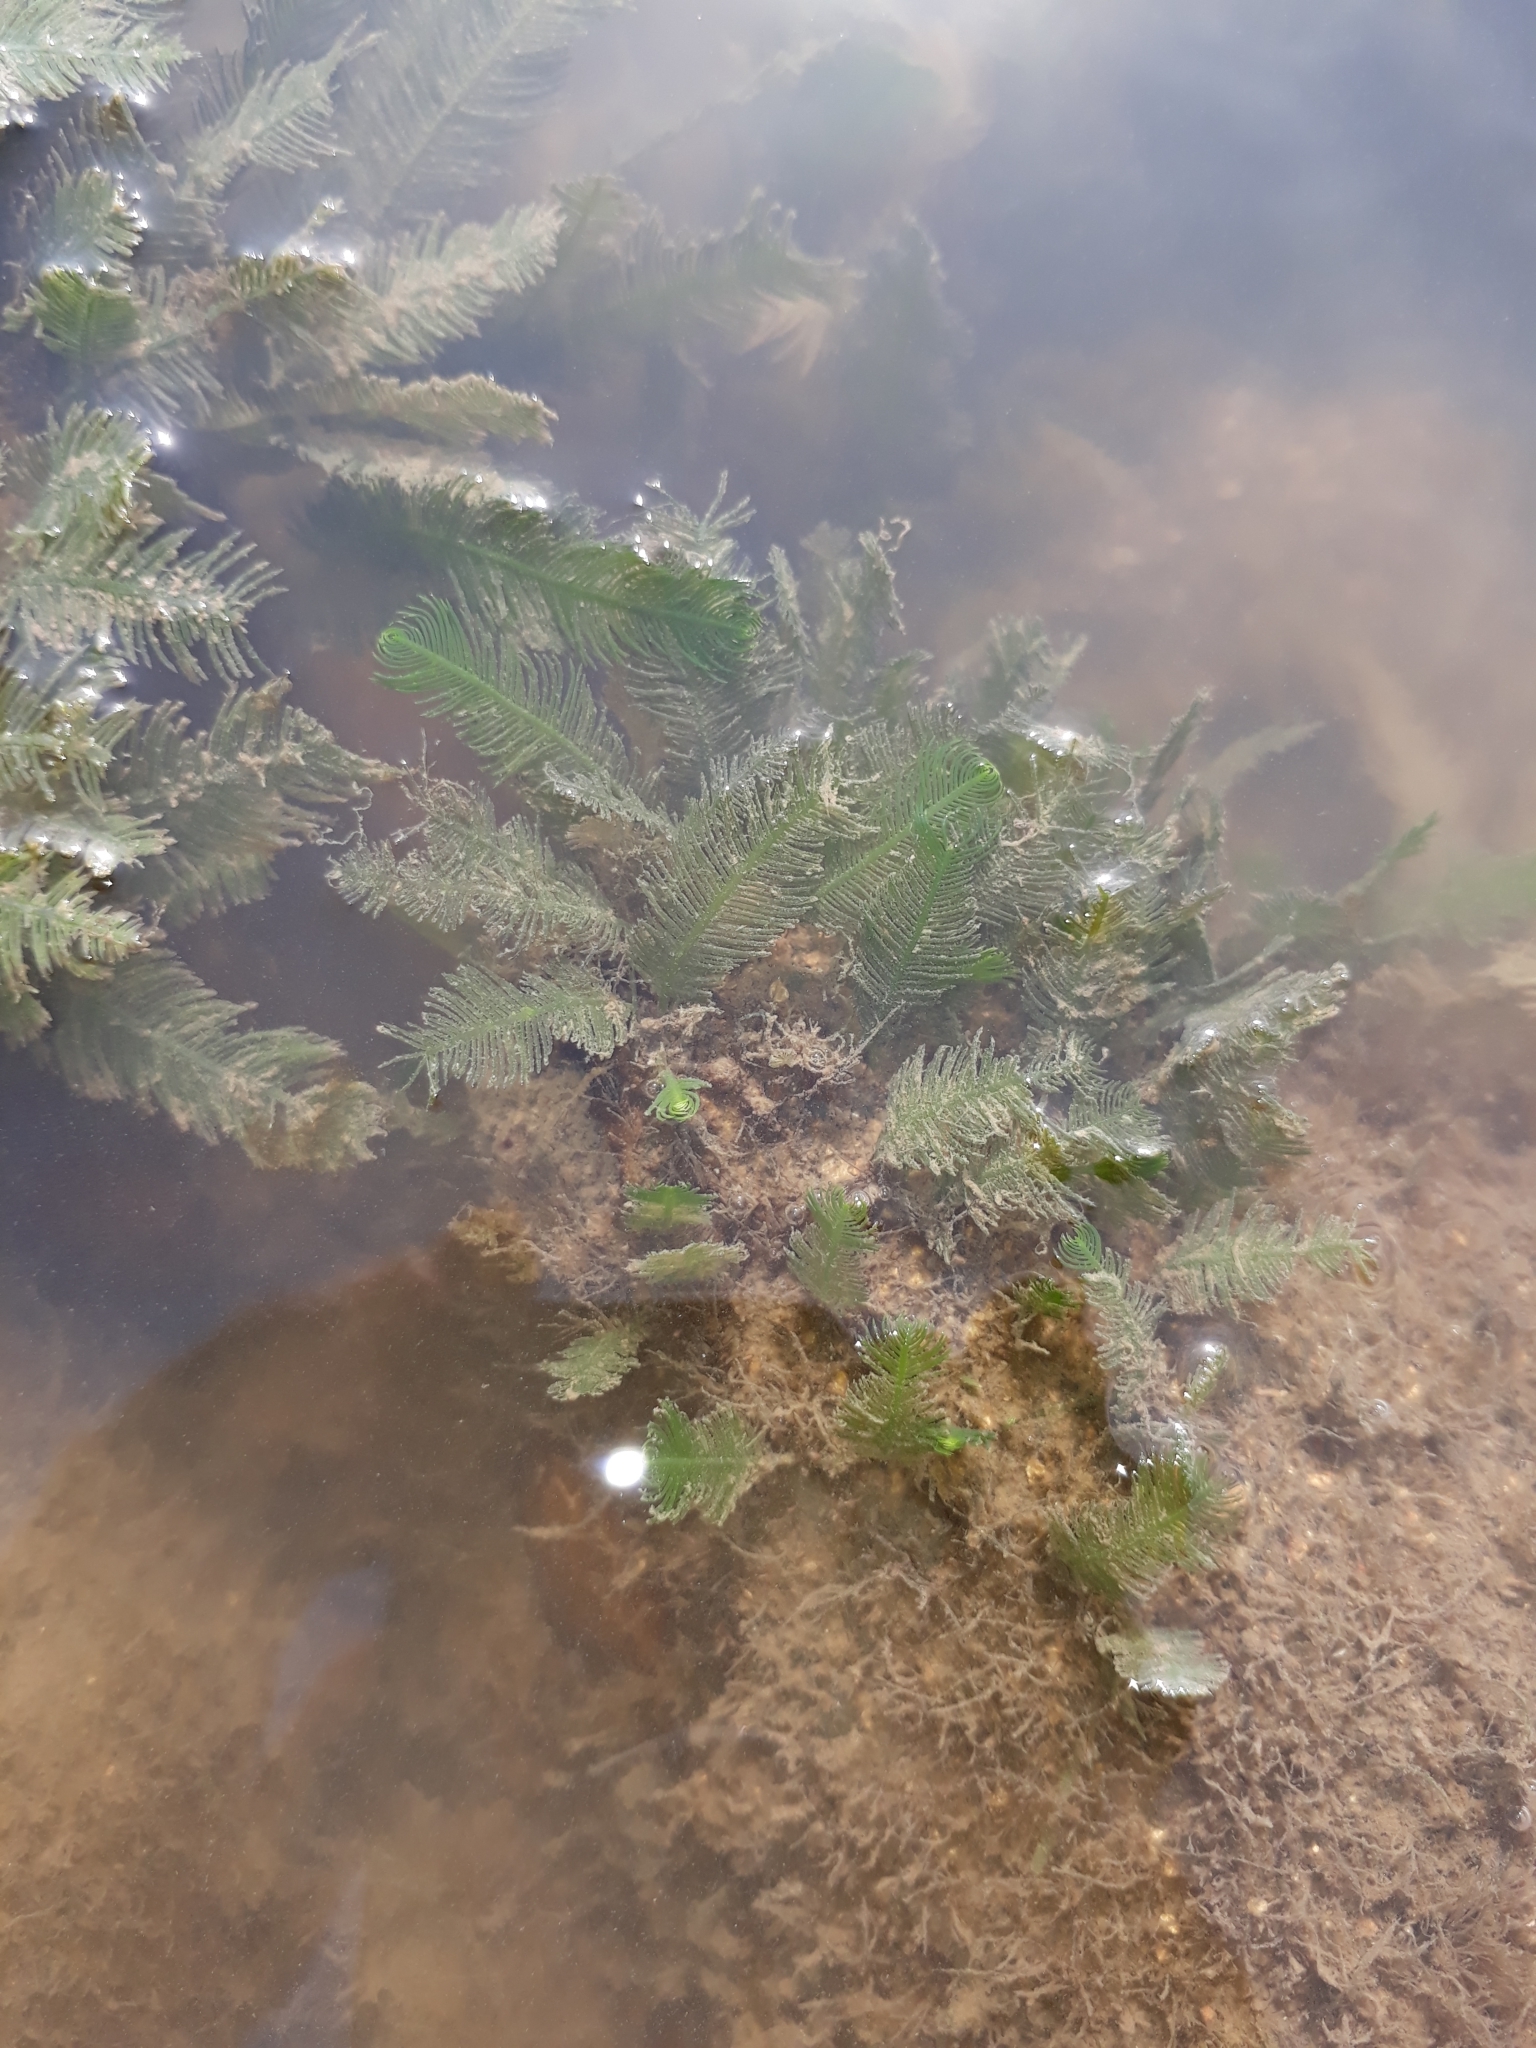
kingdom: Plantae
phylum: Chlorophyta
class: Ulvophyceae
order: Bryopsidales
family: Caulerpaceae
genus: Caulerpa
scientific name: Caulerpa sertularioides
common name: Green feather algae
